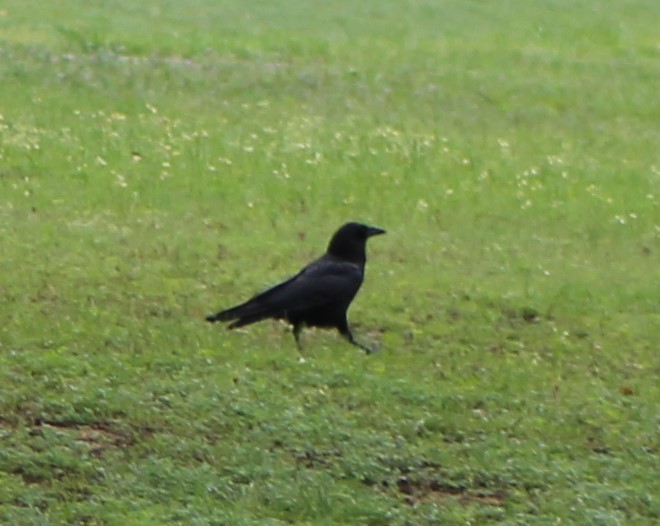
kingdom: Animalia
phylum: Chordata
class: Aves
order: Passeriformes
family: Corvidae
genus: Corvus
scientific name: Corvus brachyrhynchos
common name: American crow
